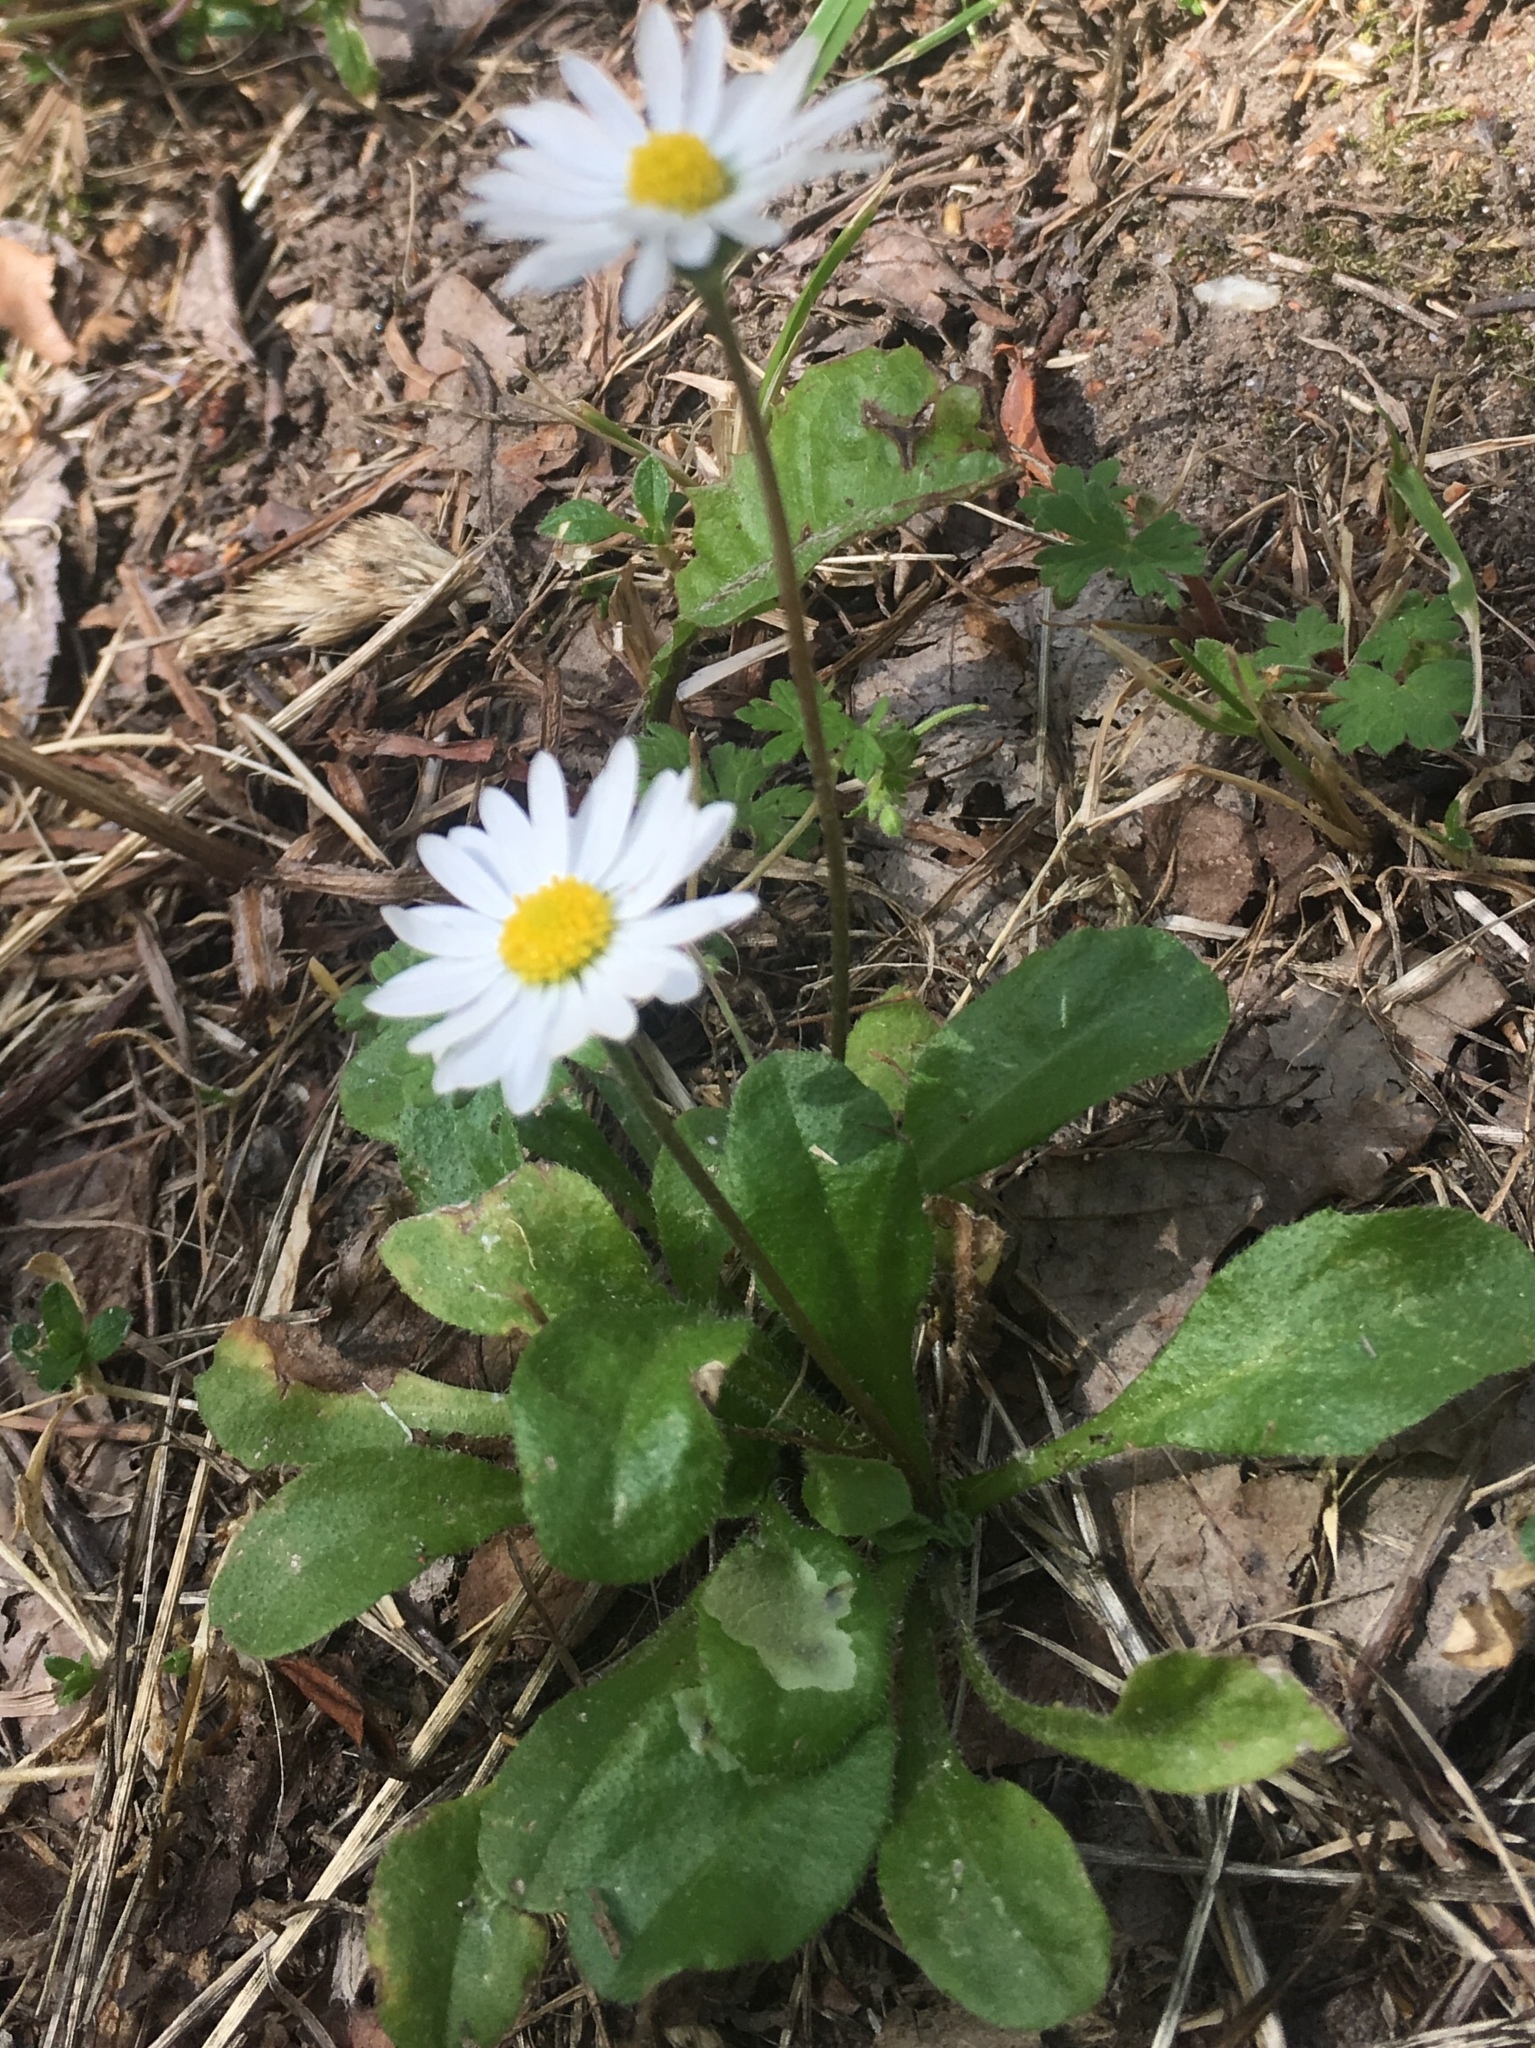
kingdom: Plantae
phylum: Tracheophyta
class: Magnoliopsida
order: Asterales
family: Asteraceae
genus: Bellis
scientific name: Bellis perennis
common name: Lawndaisy
